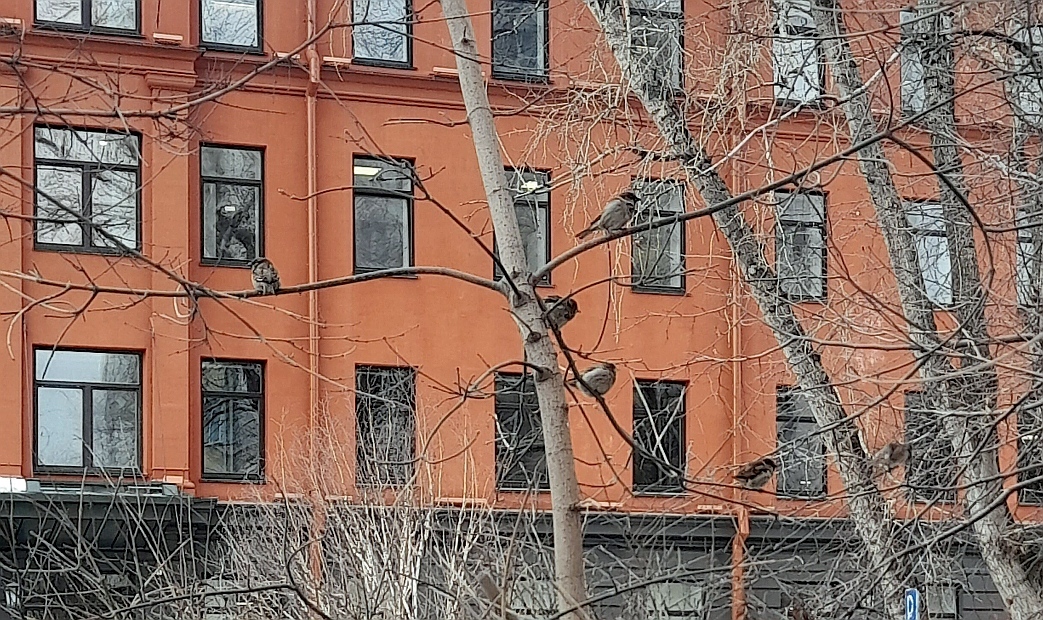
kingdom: Animalia
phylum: Chordata
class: Aves
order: Passeriformes
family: Passeridae
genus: Passer
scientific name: Passer domesticus
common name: House sparrow
